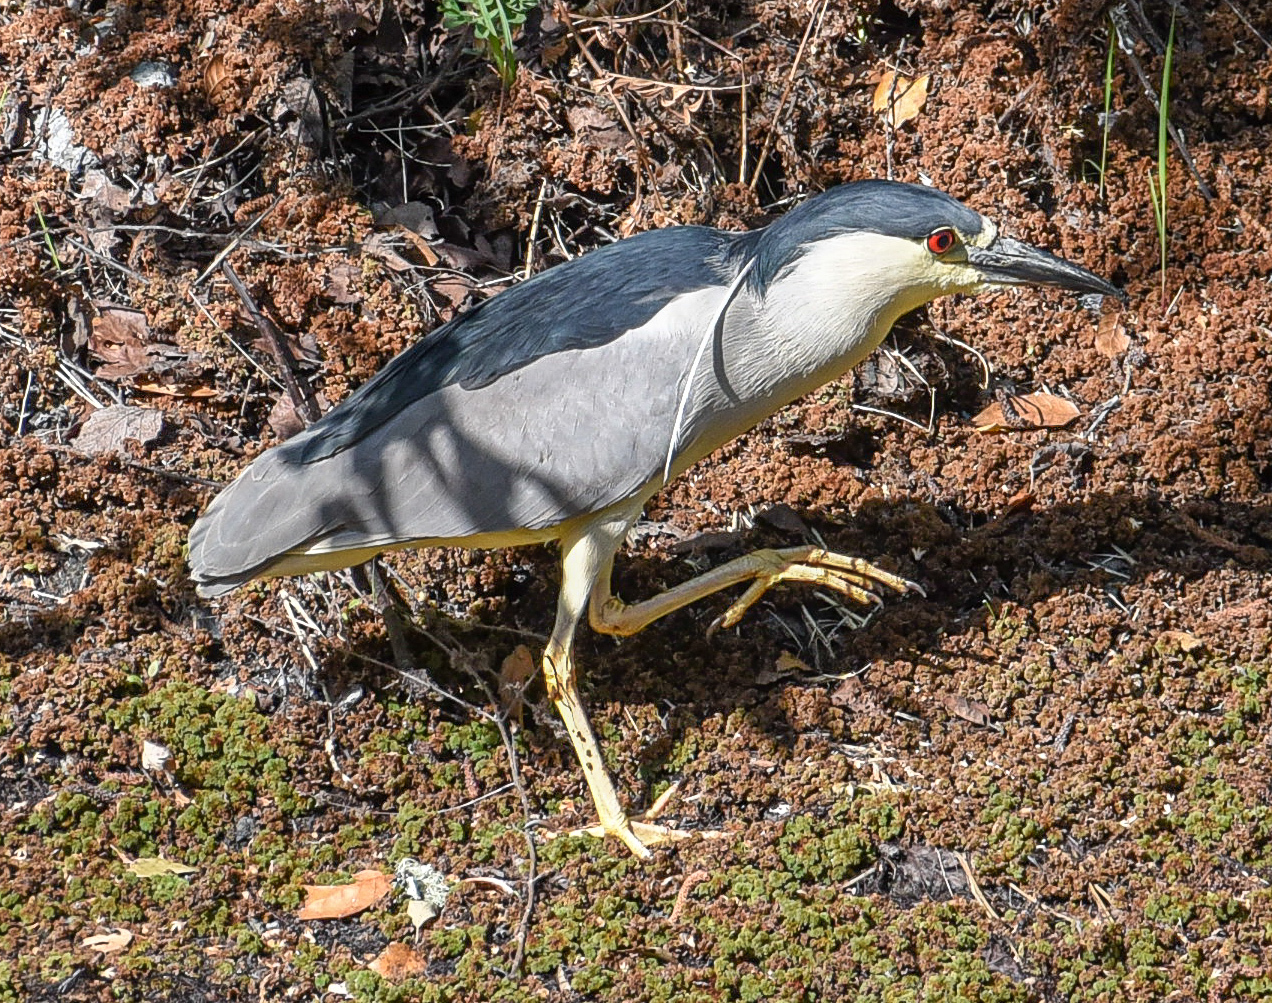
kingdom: Animalia
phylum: Chordata
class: Aves
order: Pelecaniformes
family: Ardeidae
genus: Nycticorax
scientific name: Nycticorax nycticorax
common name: Black-crowned night heron
